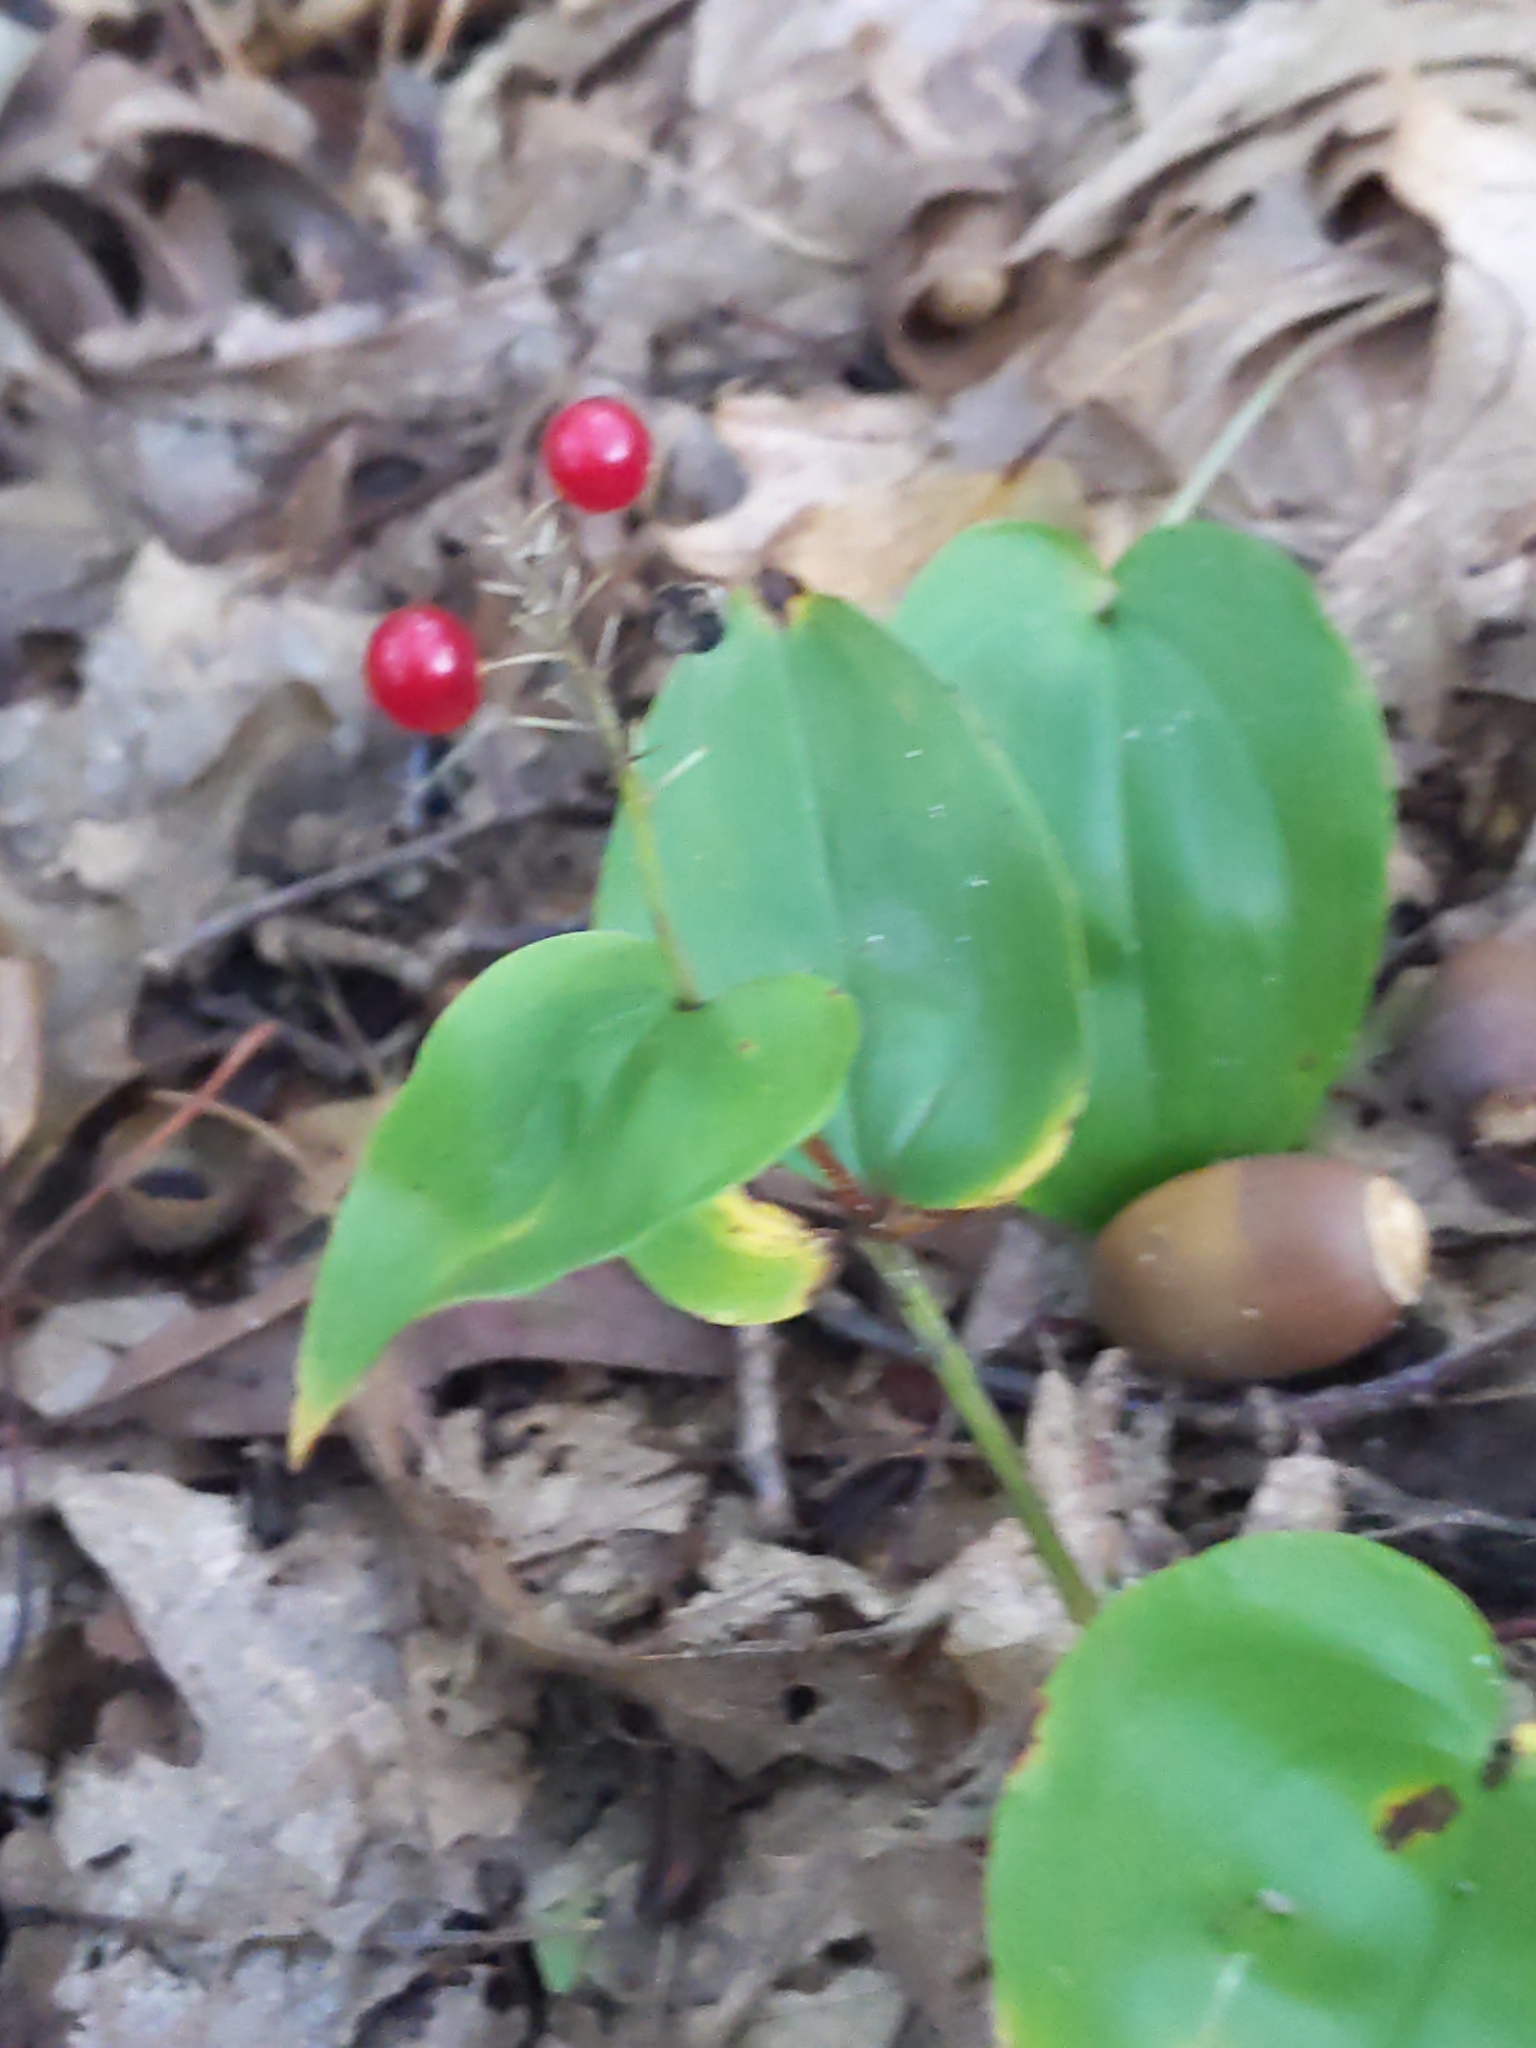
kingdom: Plantae
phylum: Tracheophyta
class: Liliopsida
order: Asparagales
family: Asparagaceae
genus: Maianthemum
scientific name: Maianthemum canadense
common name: False lily-of-the-valley
